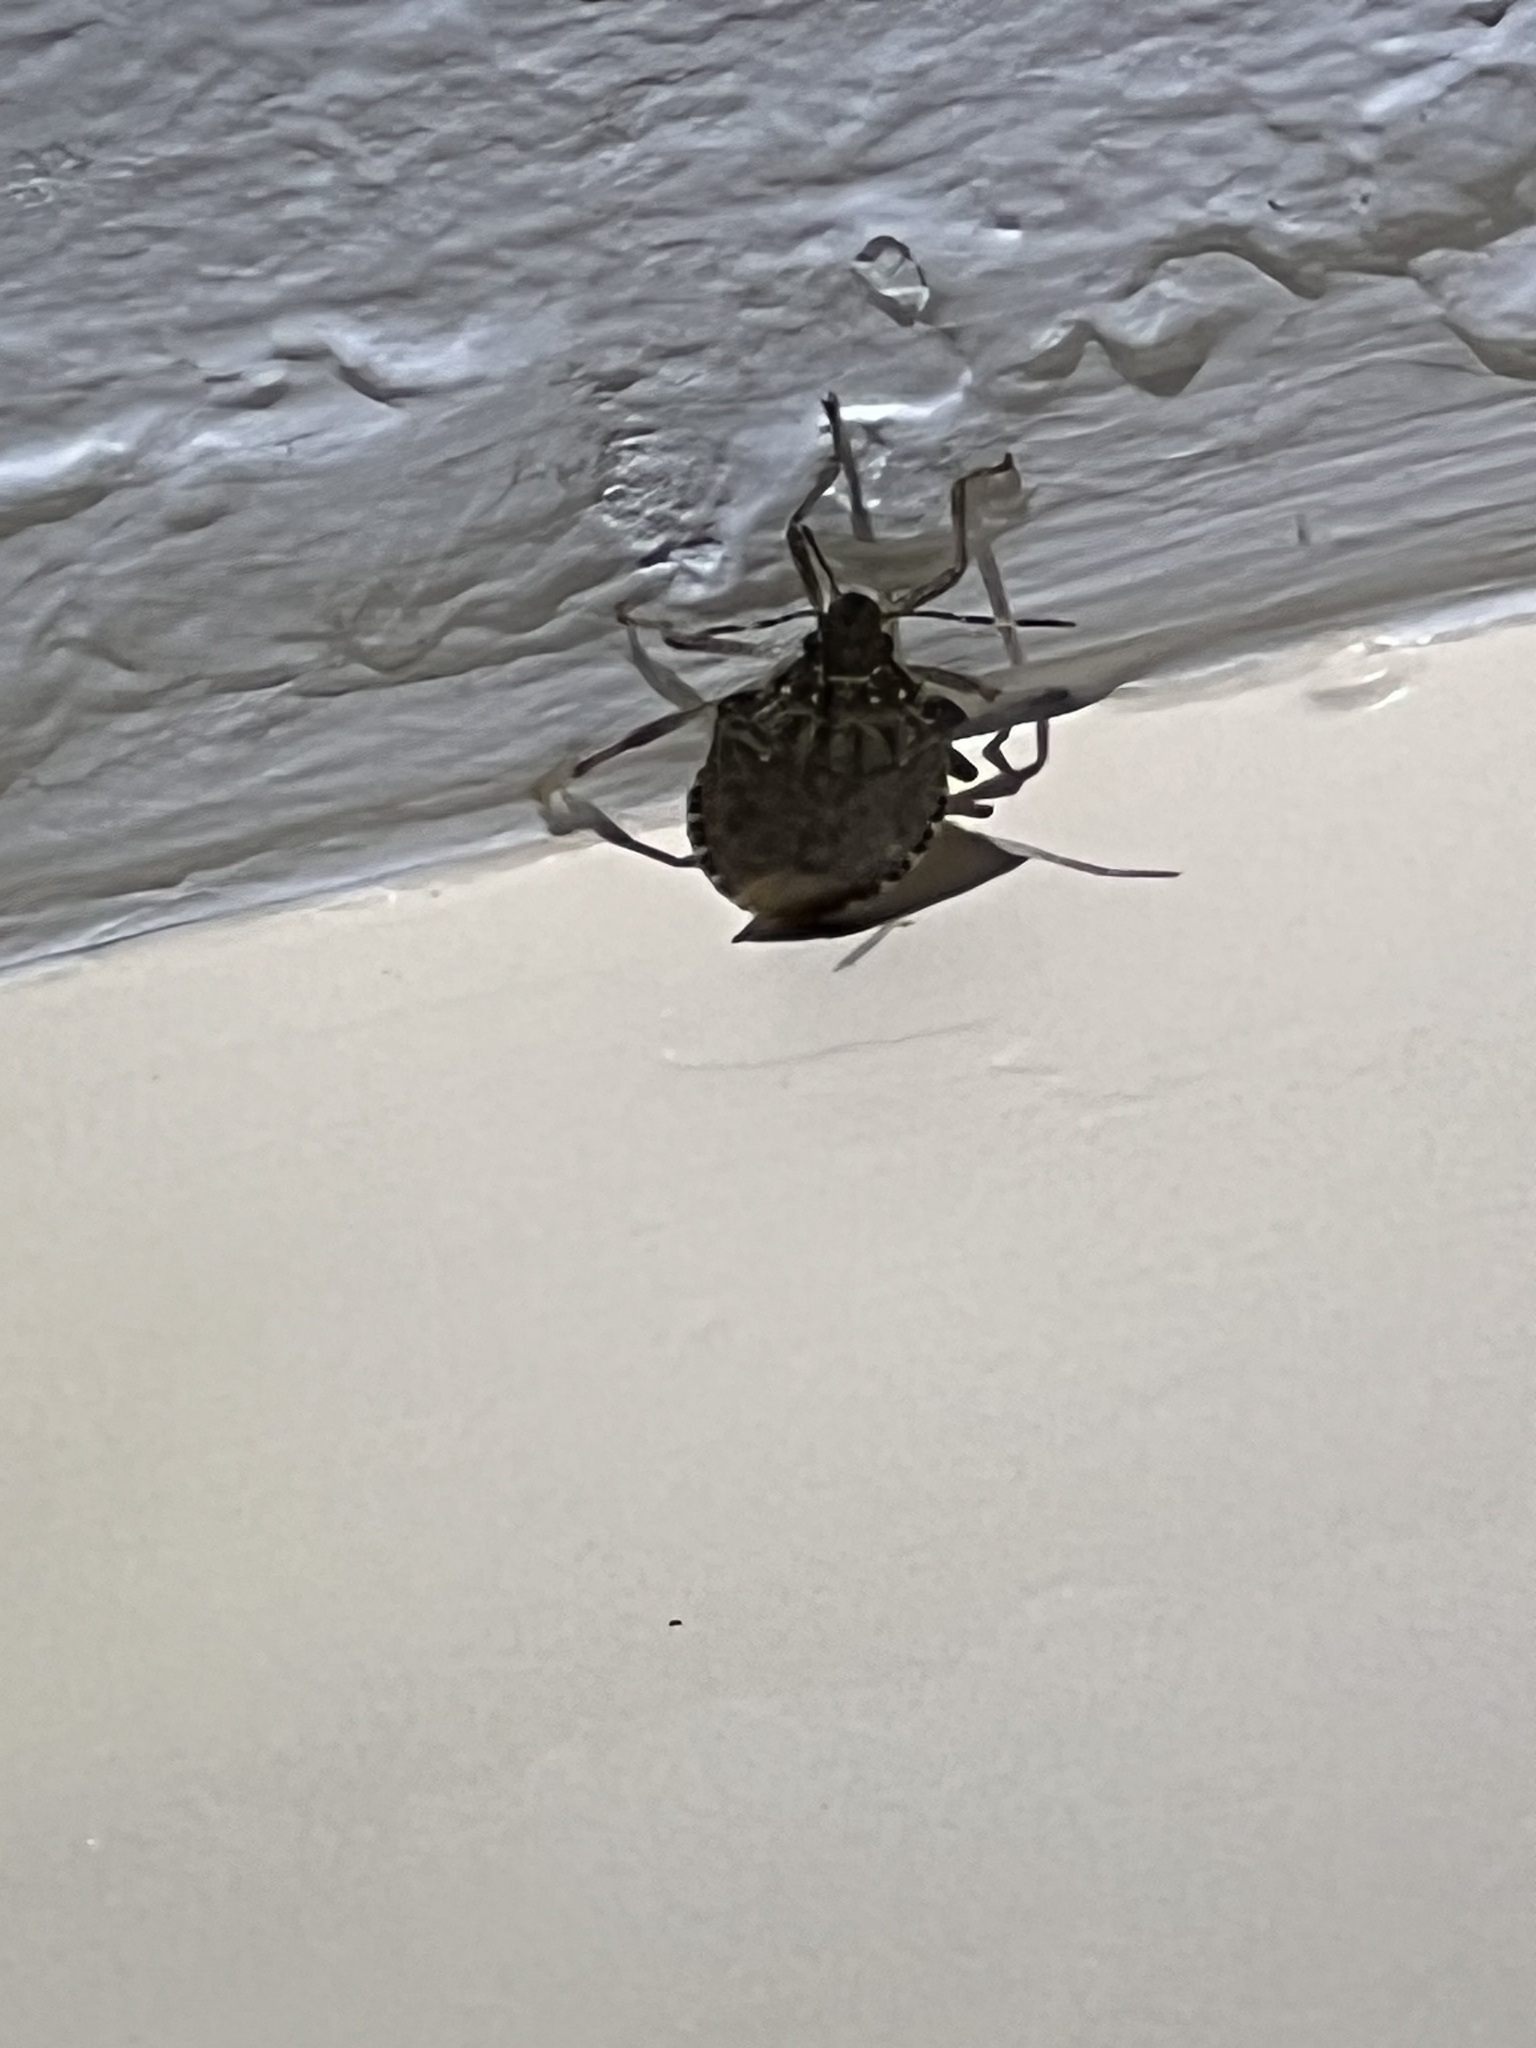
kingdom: Animalia
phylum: Arthropoda
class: Insecta
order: Hemiptera
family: Pentatomidae
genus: Halyomorpha
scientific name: Halyomorpha halys
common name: Brown marmorated stink bug
